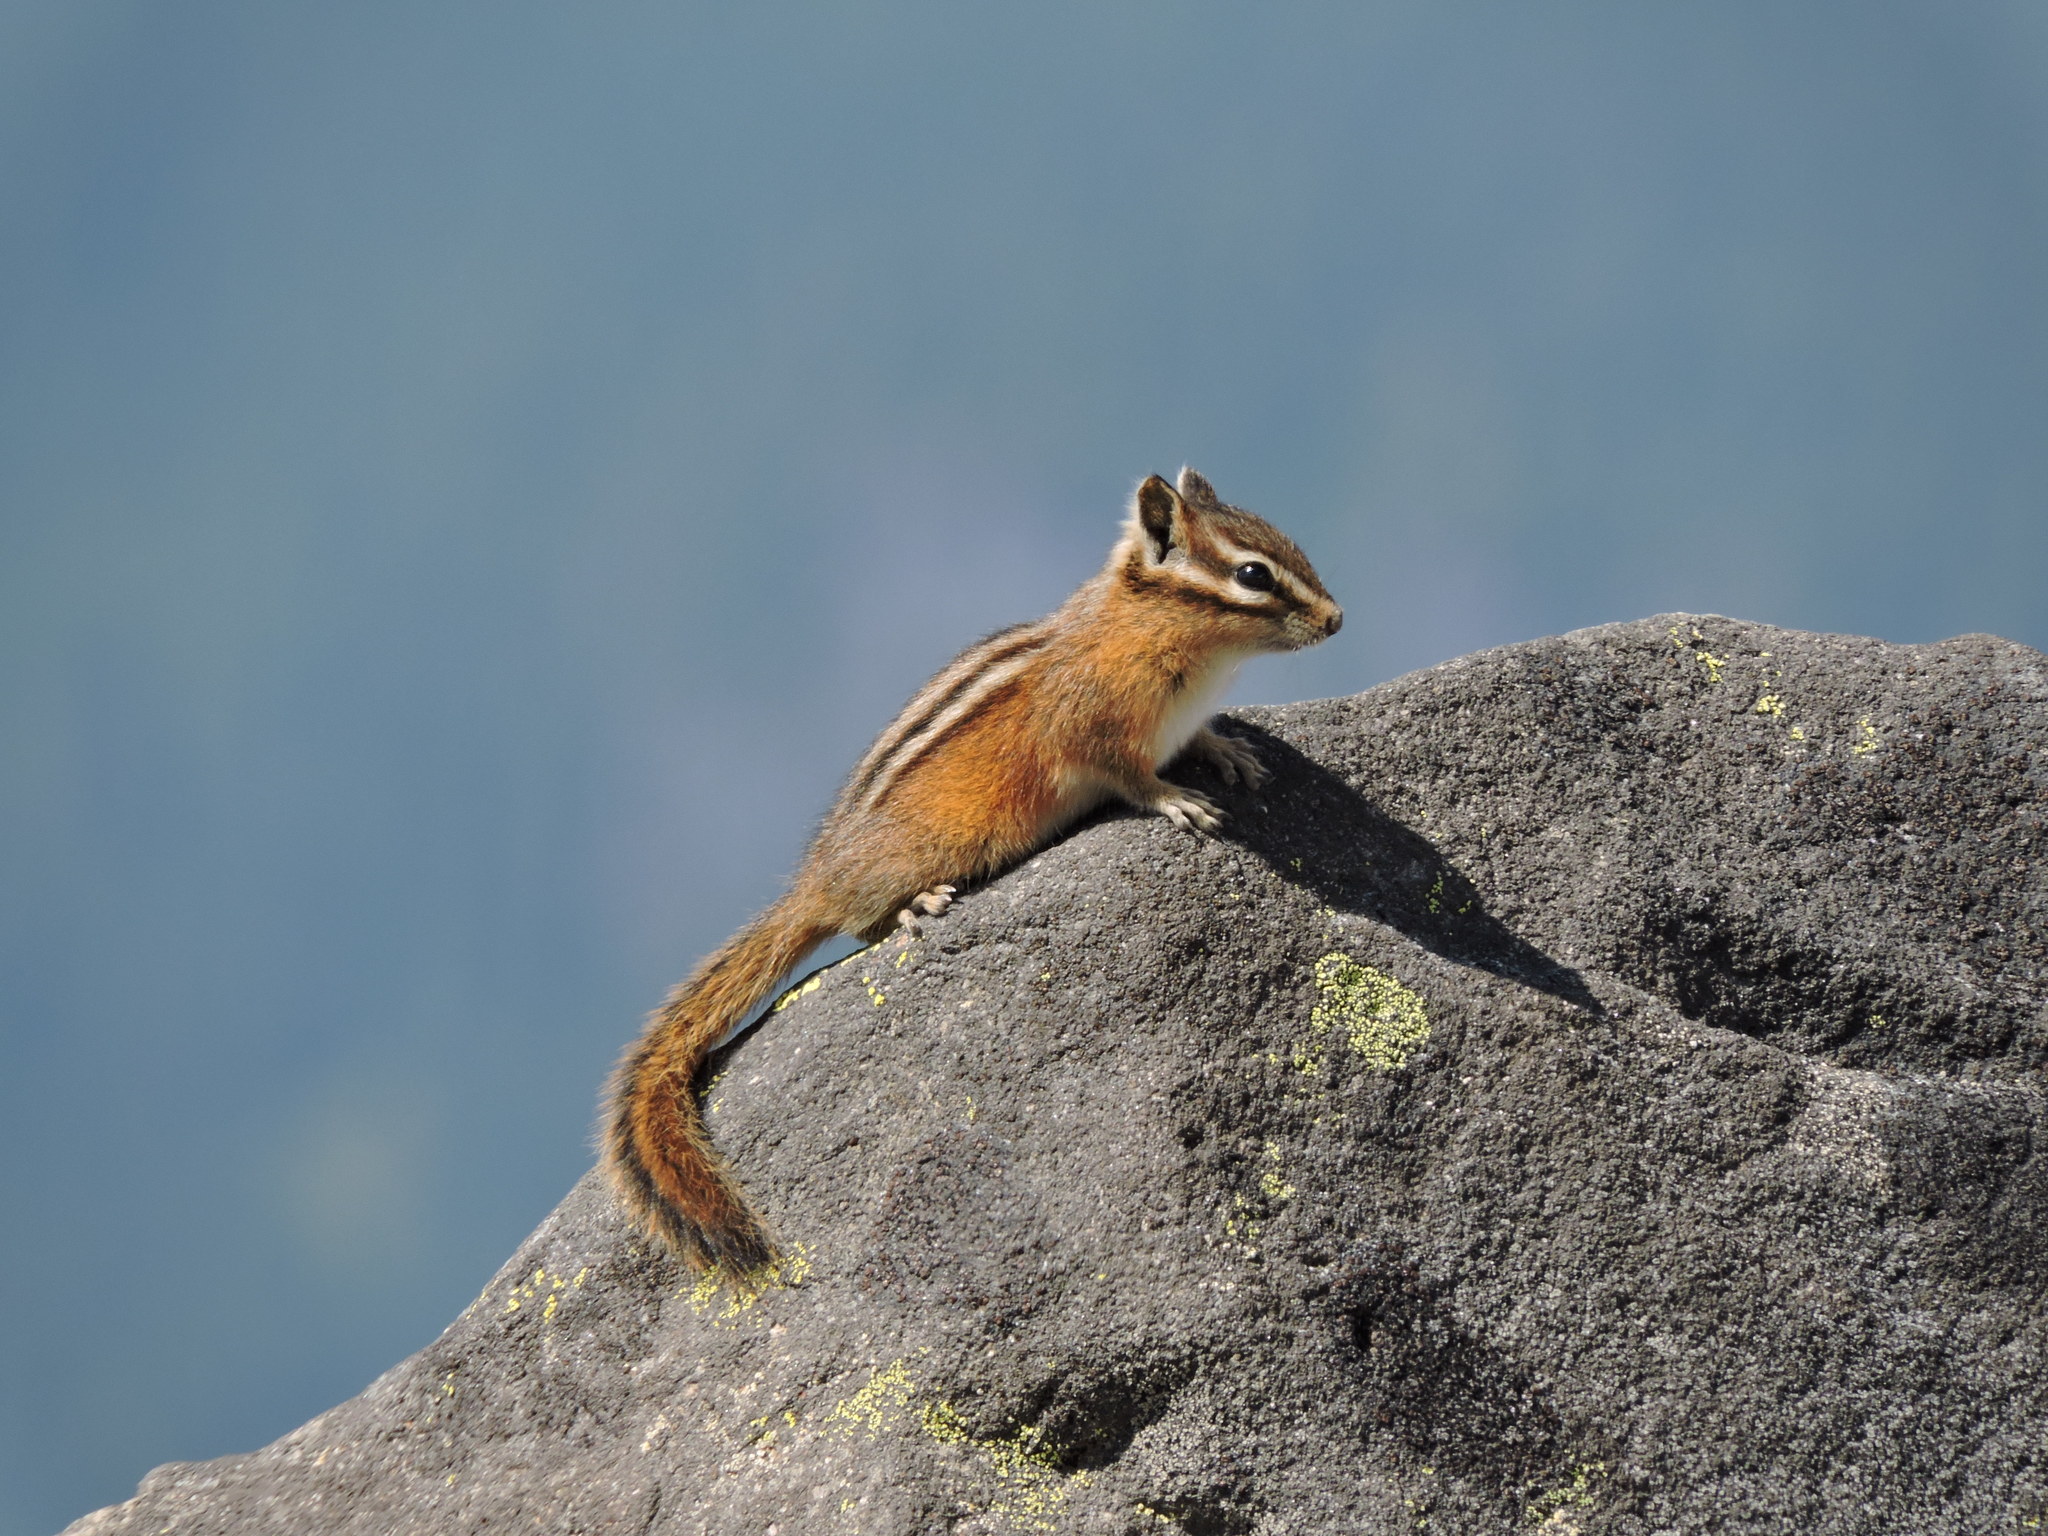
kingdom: Animalia
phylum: Chordata
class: Mammalia
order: Rodentia
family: Sciuridae
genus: Tamias
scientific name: Tamias amoenus
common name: Yellow-pine chipmunk
